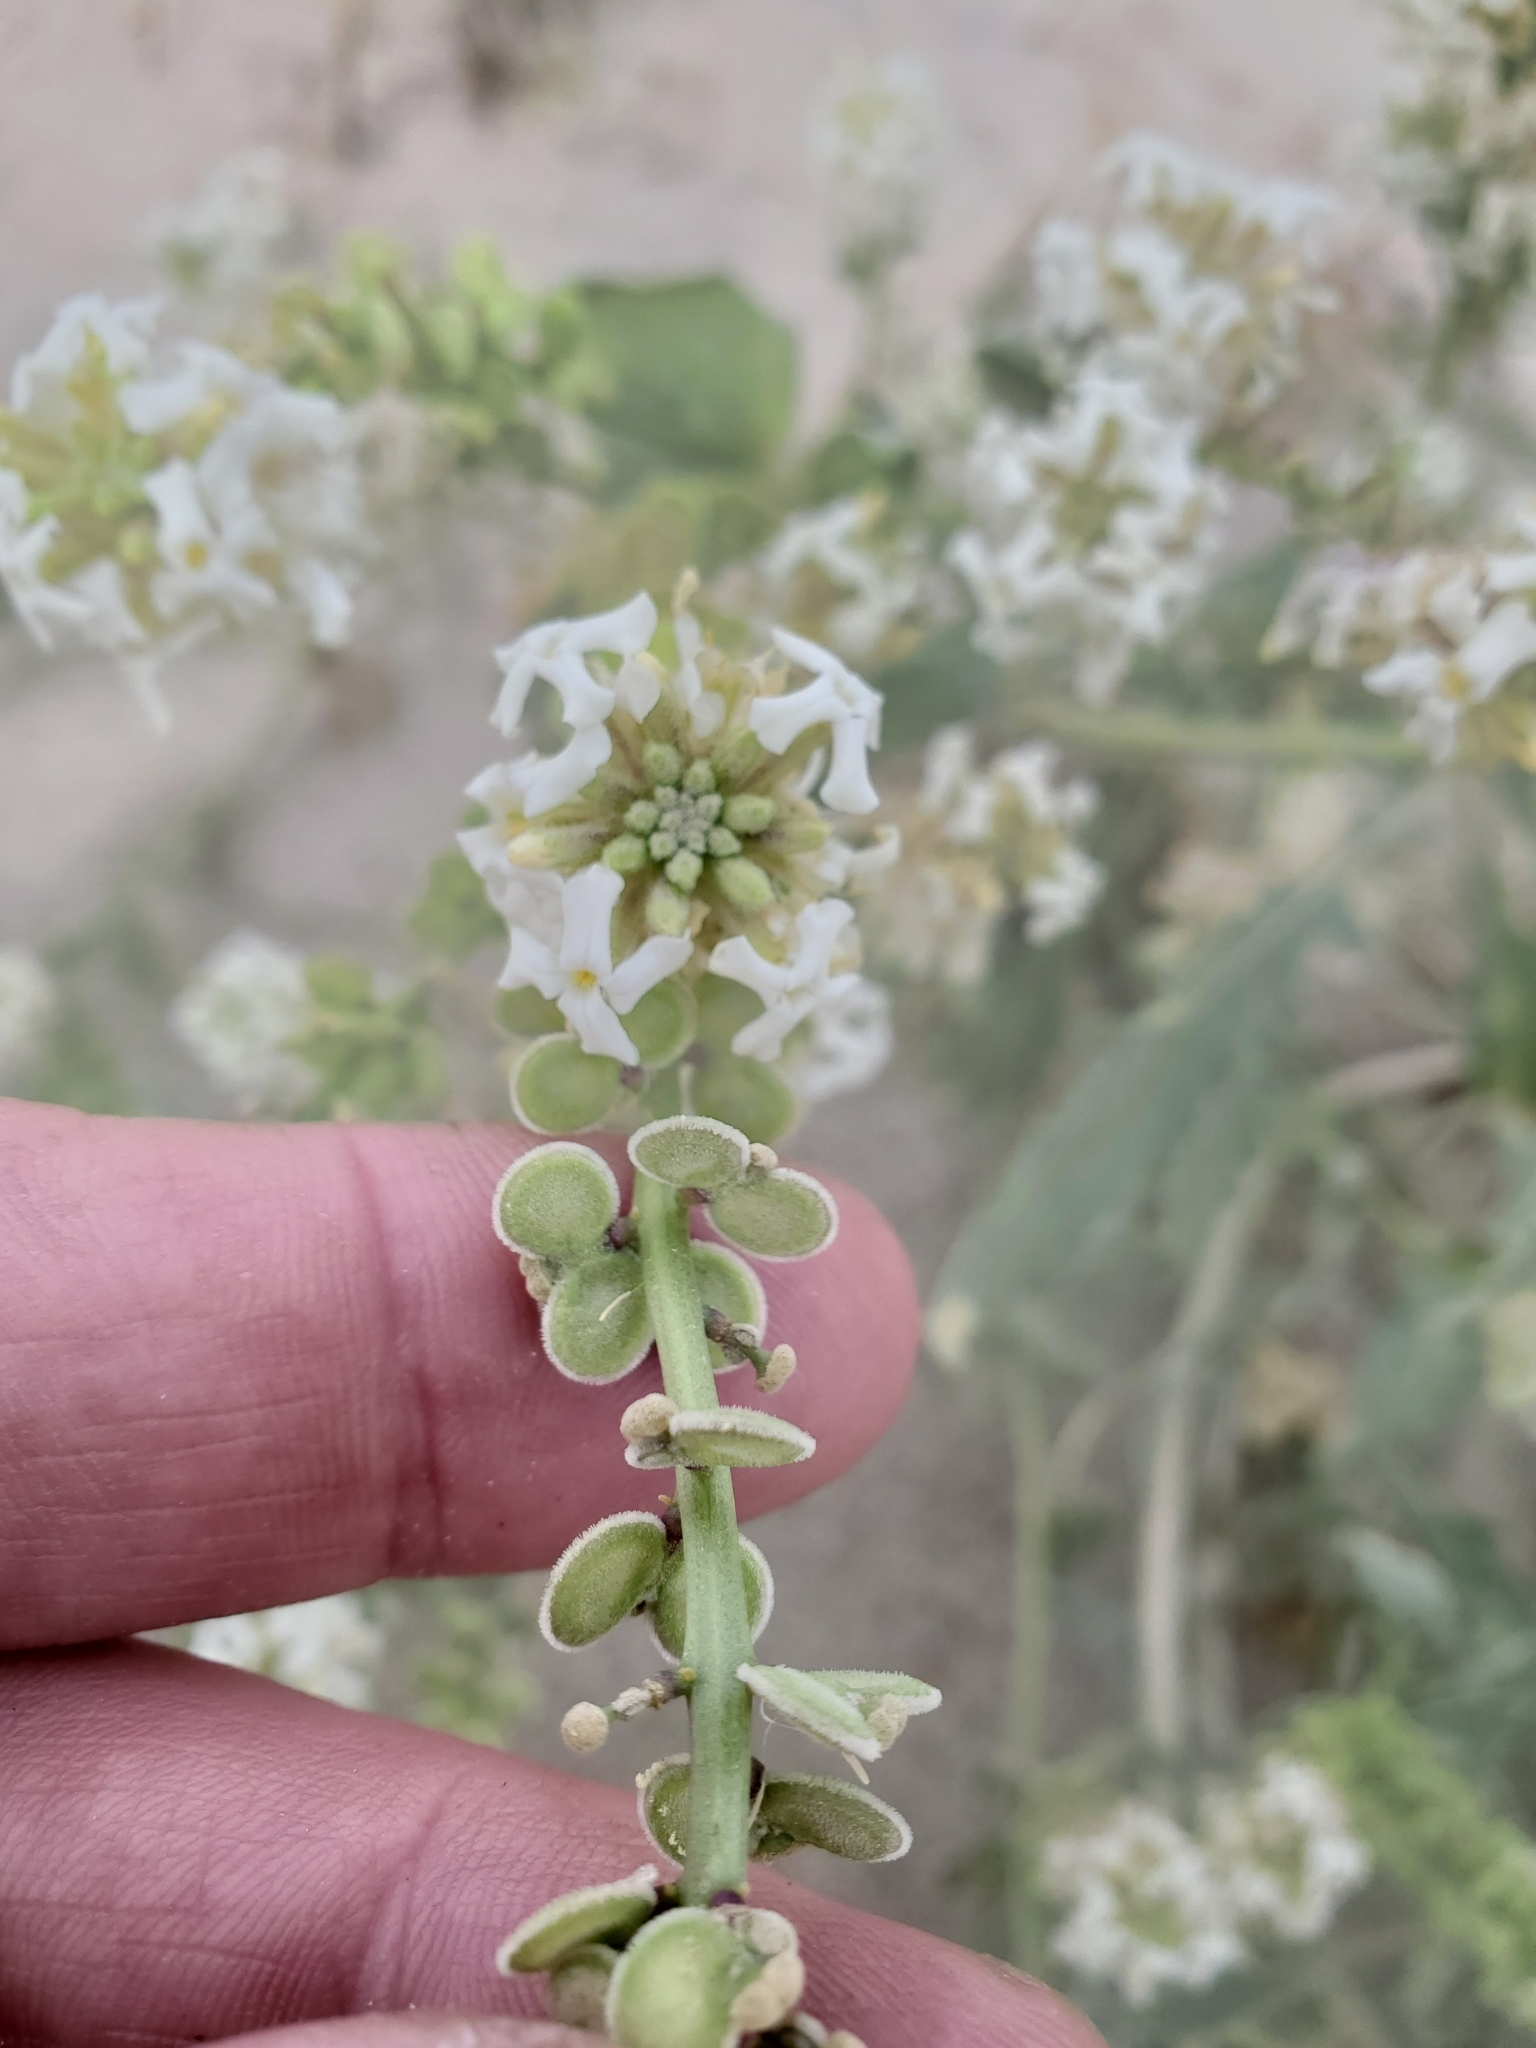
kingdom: Plantae
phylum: Tracheophyta
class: Magnoliopsida
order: Brassicales
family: Brassicaceae
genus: Dithyrea
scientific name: Dithyrea californica
